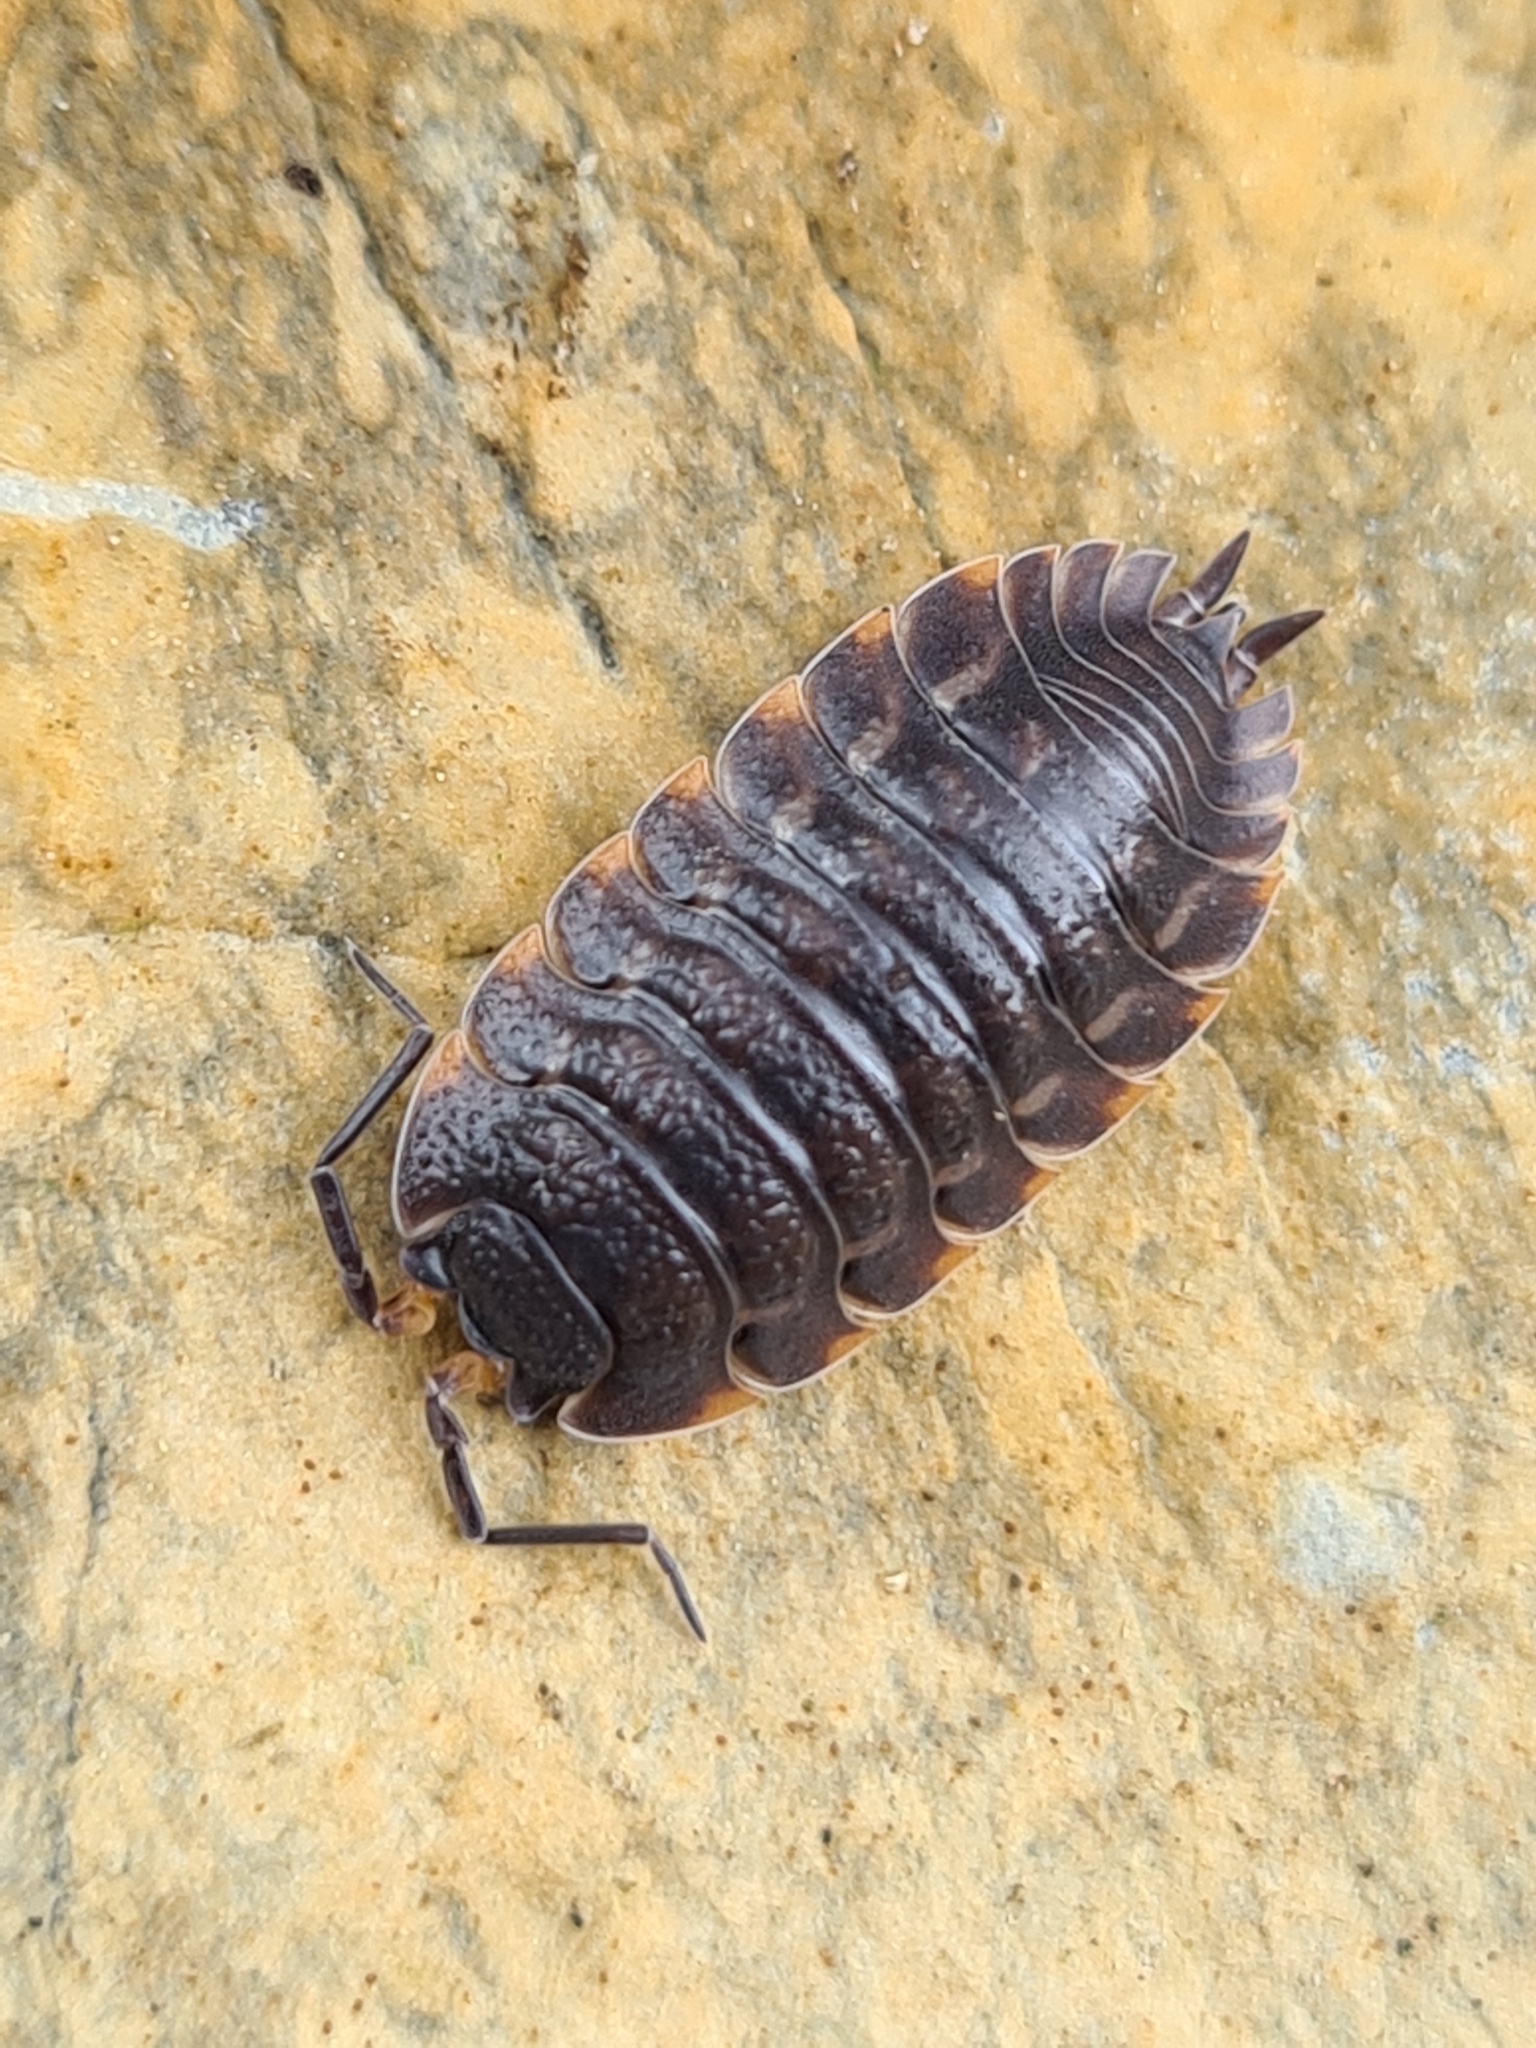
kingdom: Animalia
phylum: Arthropoda
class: Malacostraca
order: Isopoda
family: Trachelipodidae
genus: Trachelipus
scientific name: Trachelipus ratzeburgii
